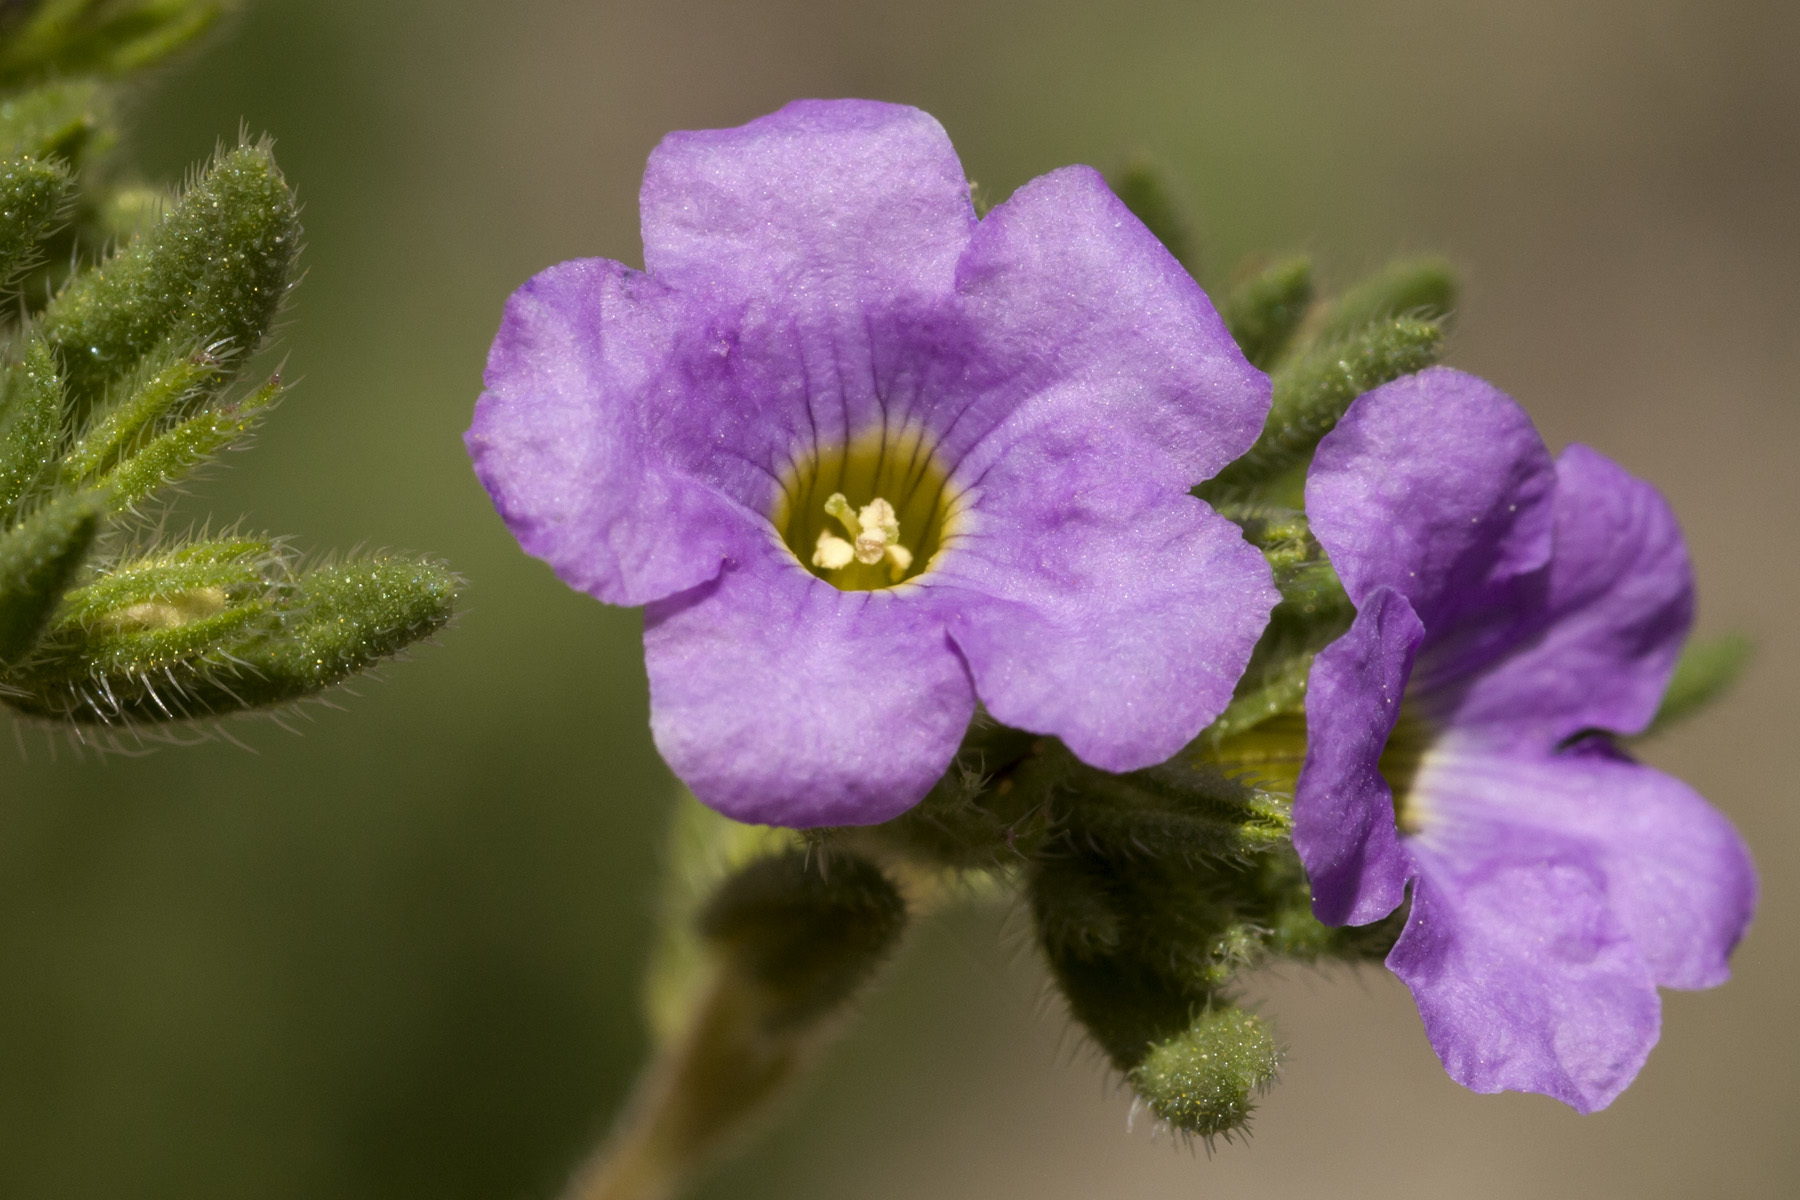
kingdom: Plantae
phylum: Tracheophyta
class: Magnoliopsida
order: Boraginales
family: Namaceae
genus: Nama
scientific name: Nama hispida
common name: Bristly nama
